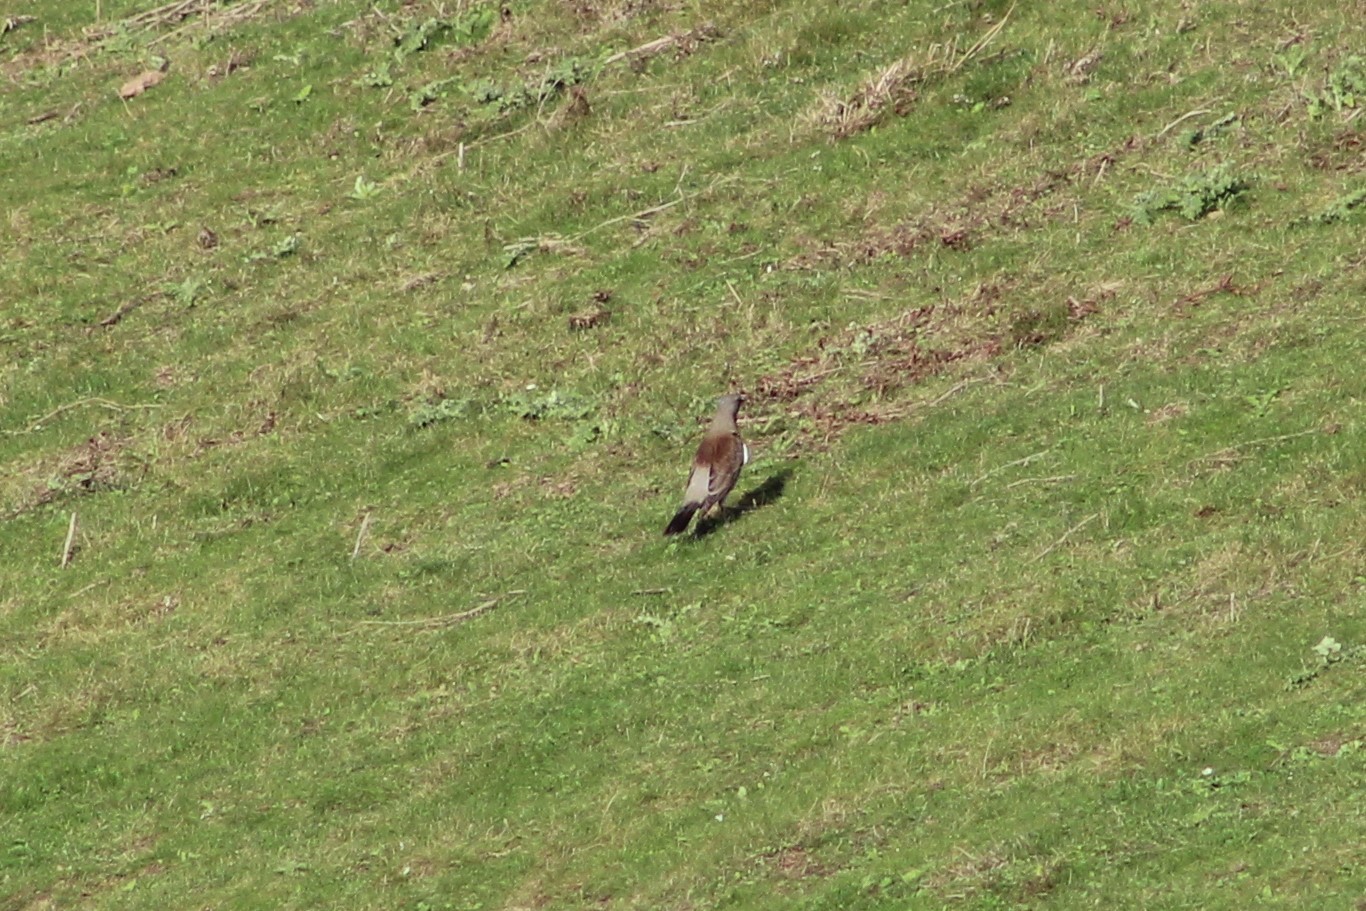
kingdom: Animalia
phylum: Chordata
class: Aves
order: Passeriformes
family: Turdidae
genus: Turdus
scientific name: Turdus pilaris
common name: Fieldfare
